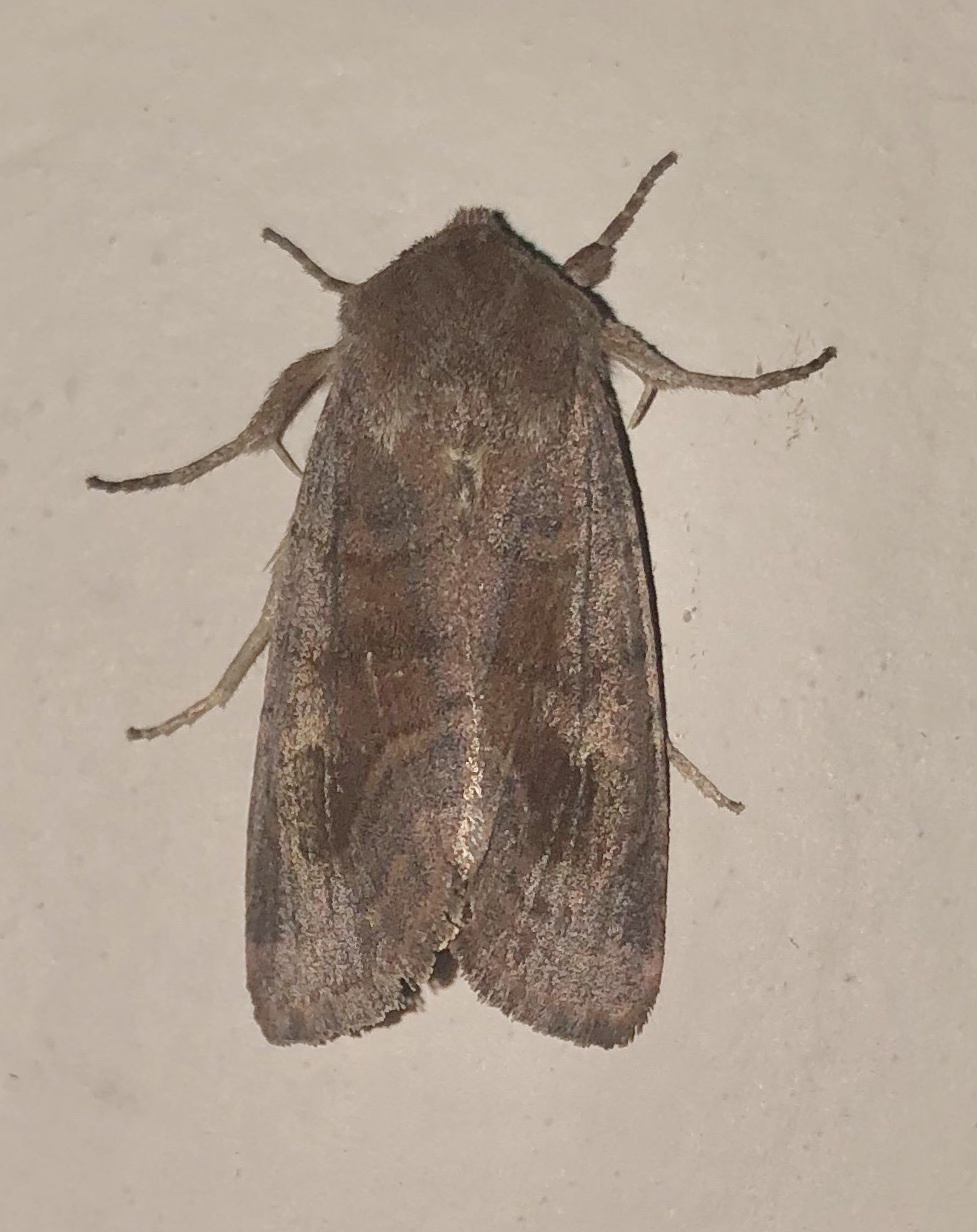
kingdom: Animalia
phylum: Arthropoda
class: Insecta
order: Lepidoptera
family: Noctuidae
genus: Nephelodes
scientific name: Nephelodes minians
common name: Bronzed cutworm
